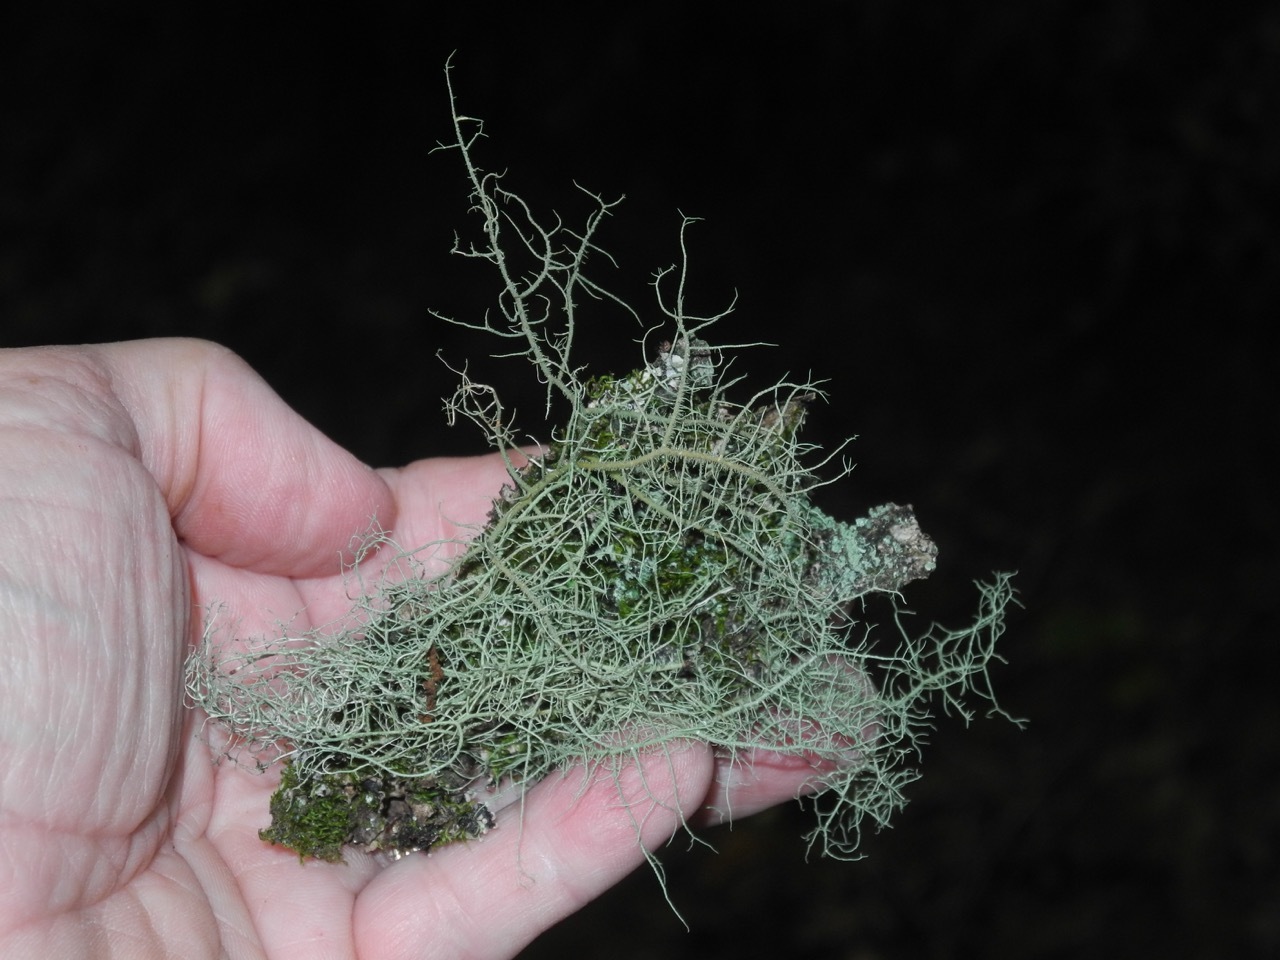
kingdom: Fungi
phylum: Ascomycota
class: Lecanoromycetes
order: Lecanorales
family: Parmeliaceae
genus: Usnea
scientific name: Usnea subfloridana
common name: Boreal beard lichen
